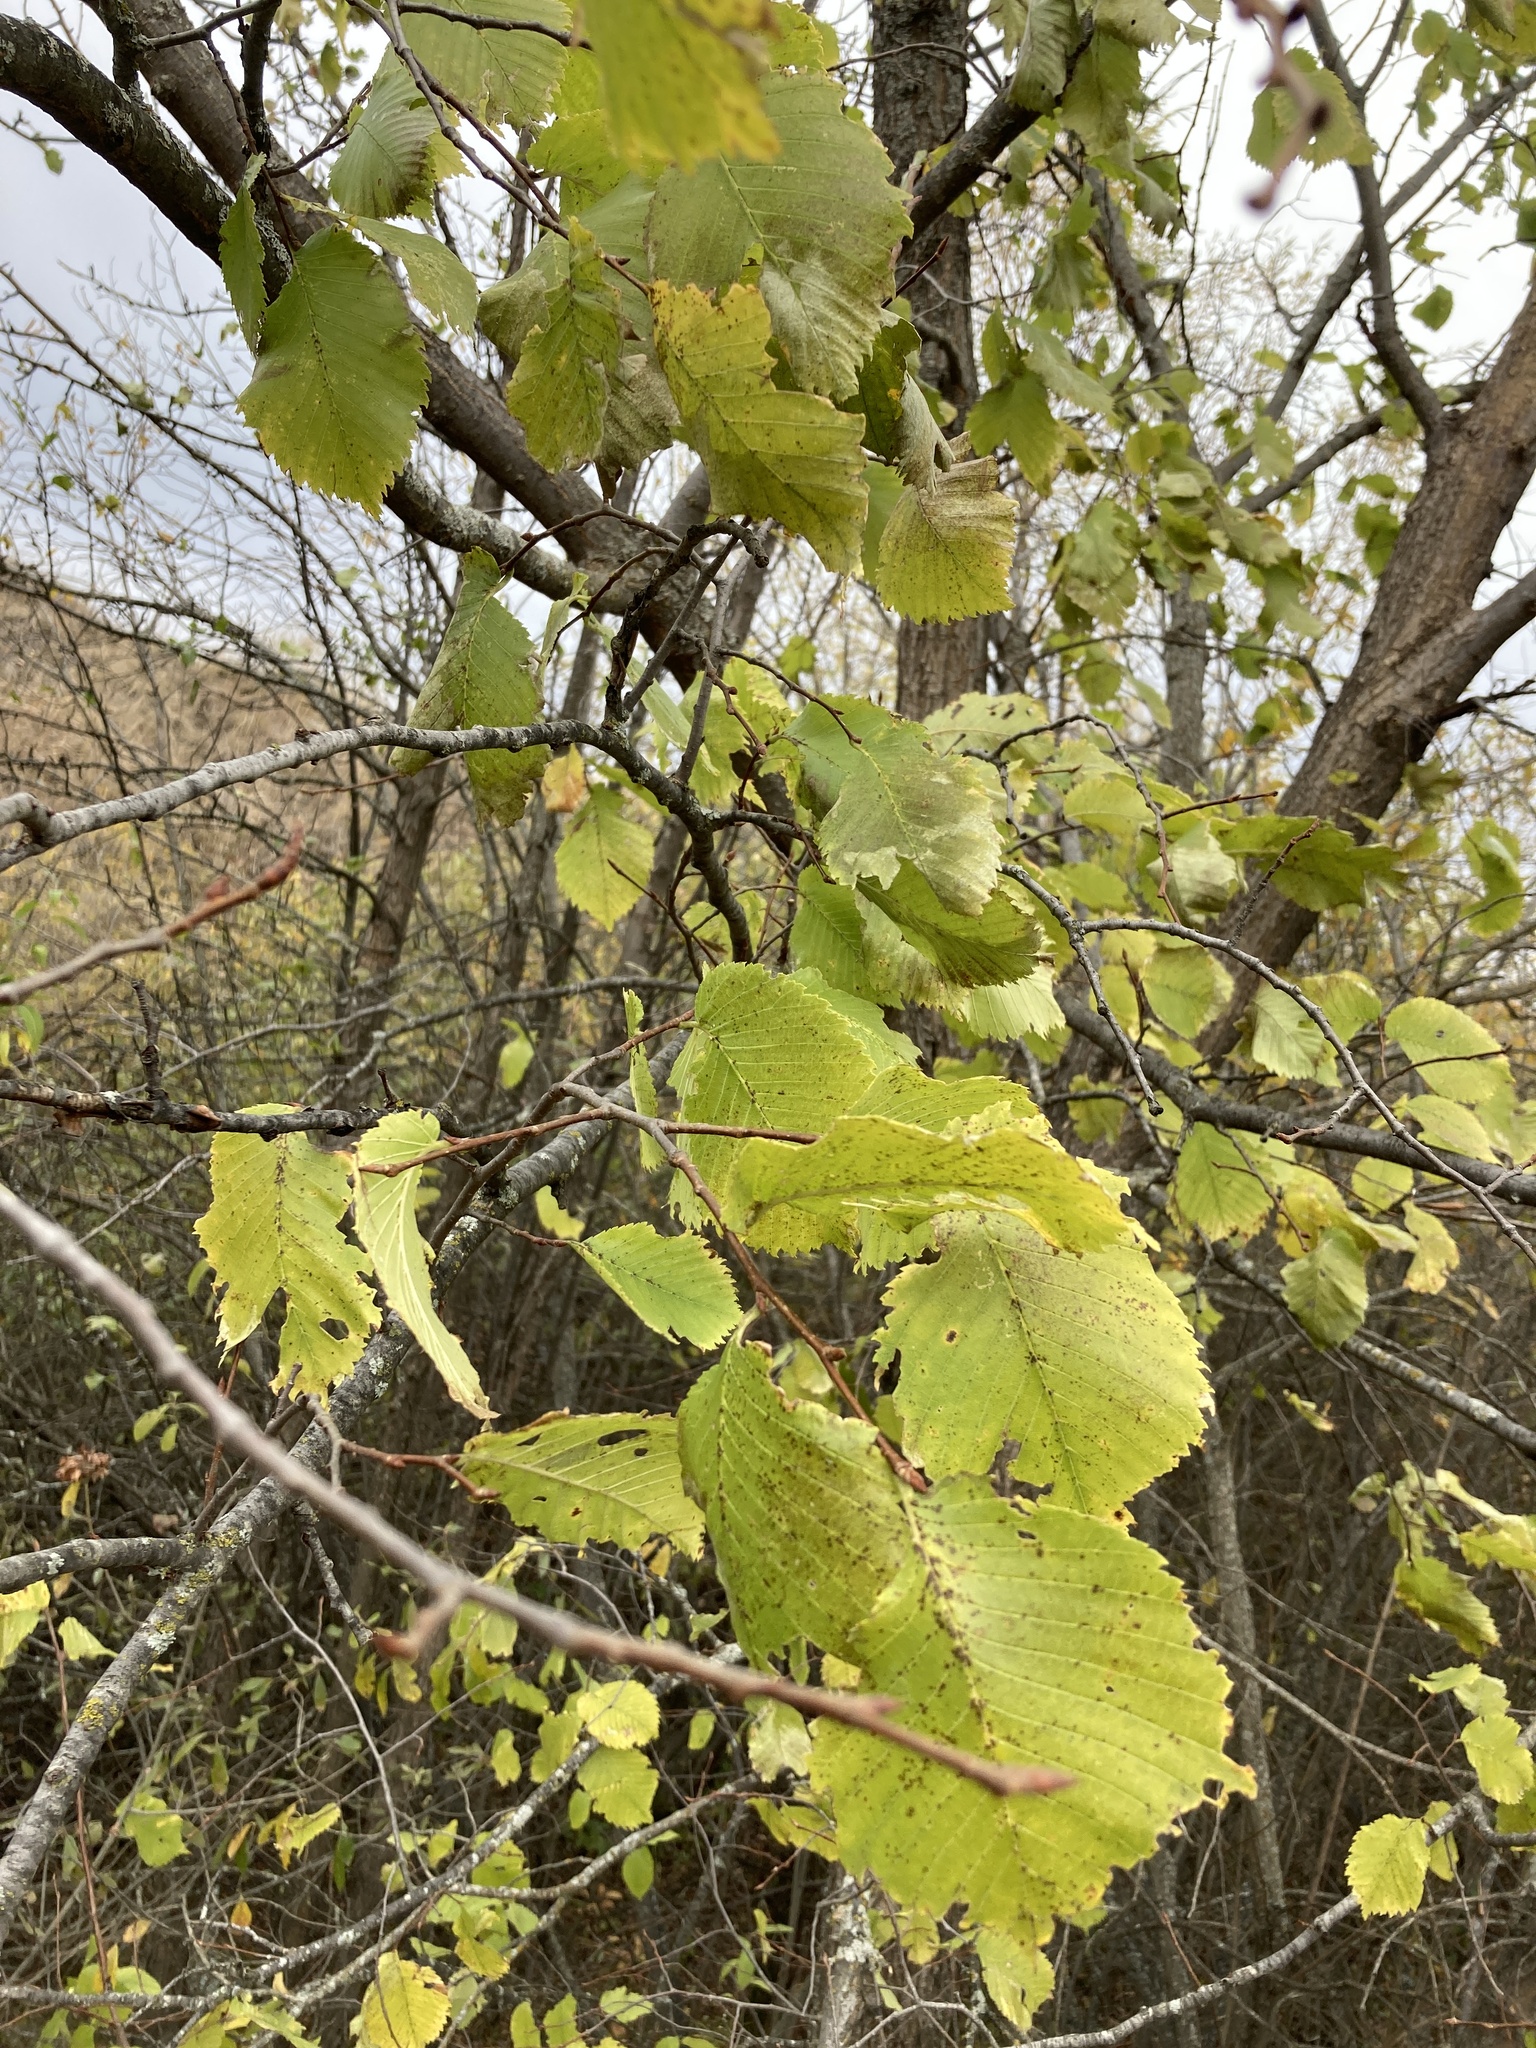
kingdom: Plantae
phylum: Tracheophyta
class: Magnoliopsida
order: Rosales
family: Ulmaceae
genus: Ulmus
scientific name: Ulmus laevis
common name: European white-elm
